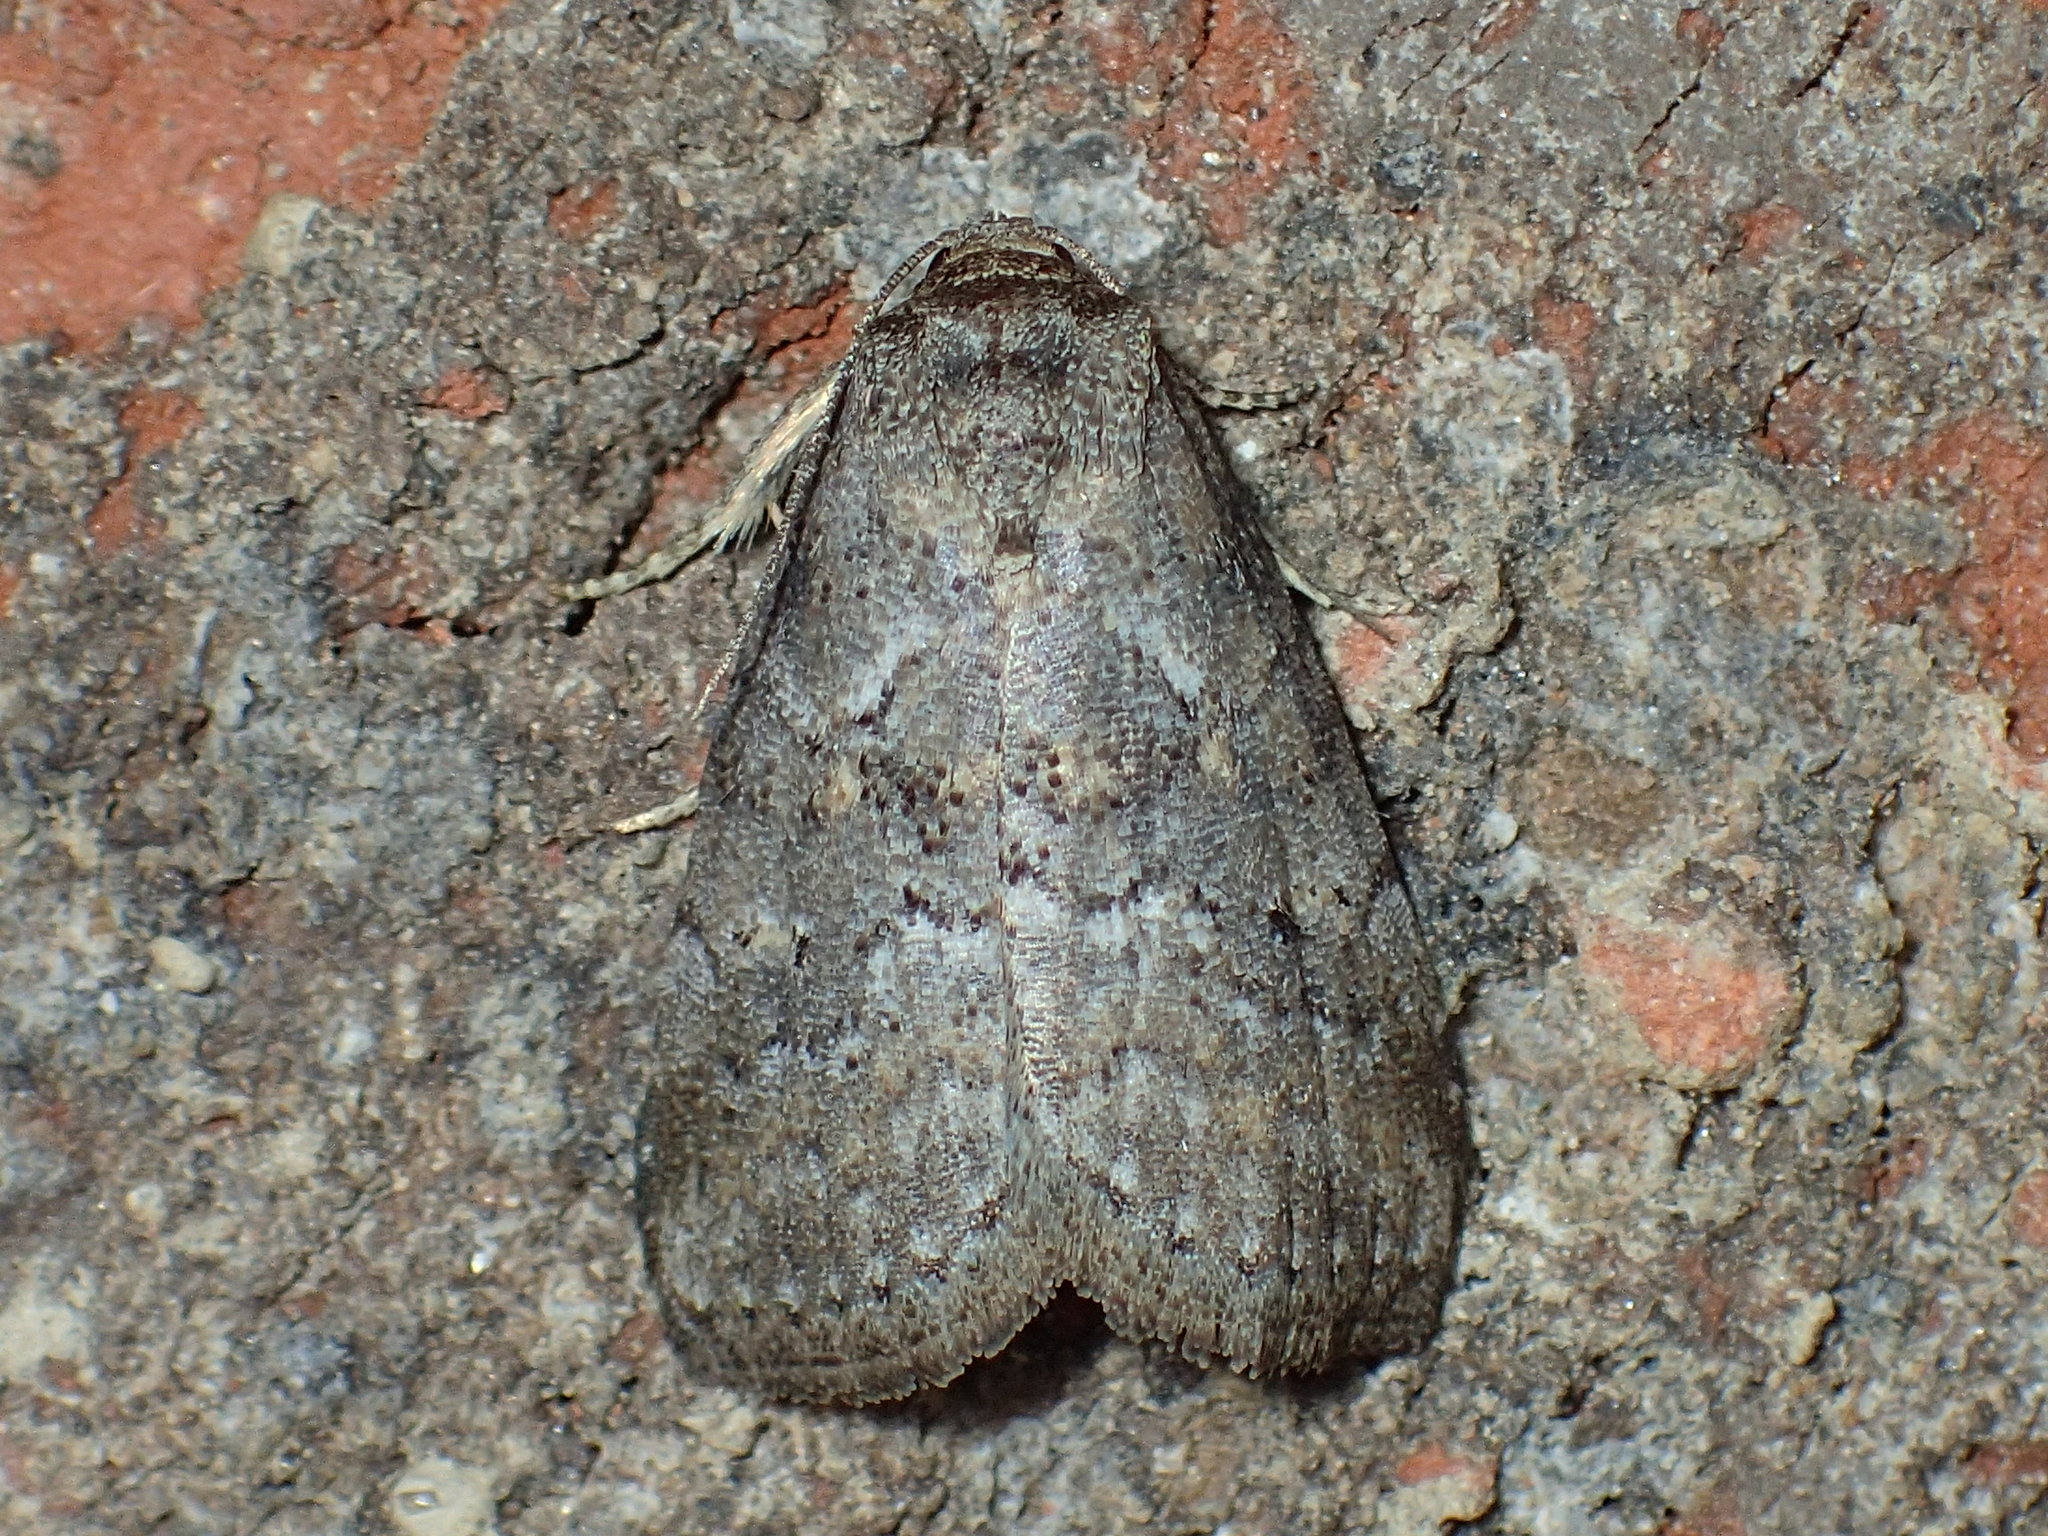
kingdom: Animalia
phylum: Arthropoda
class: Insecta
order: Lepidoptera
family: Erebidae
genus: Hyperstrotia
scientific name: Hyperstrotia nana
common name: White-lined graylet
